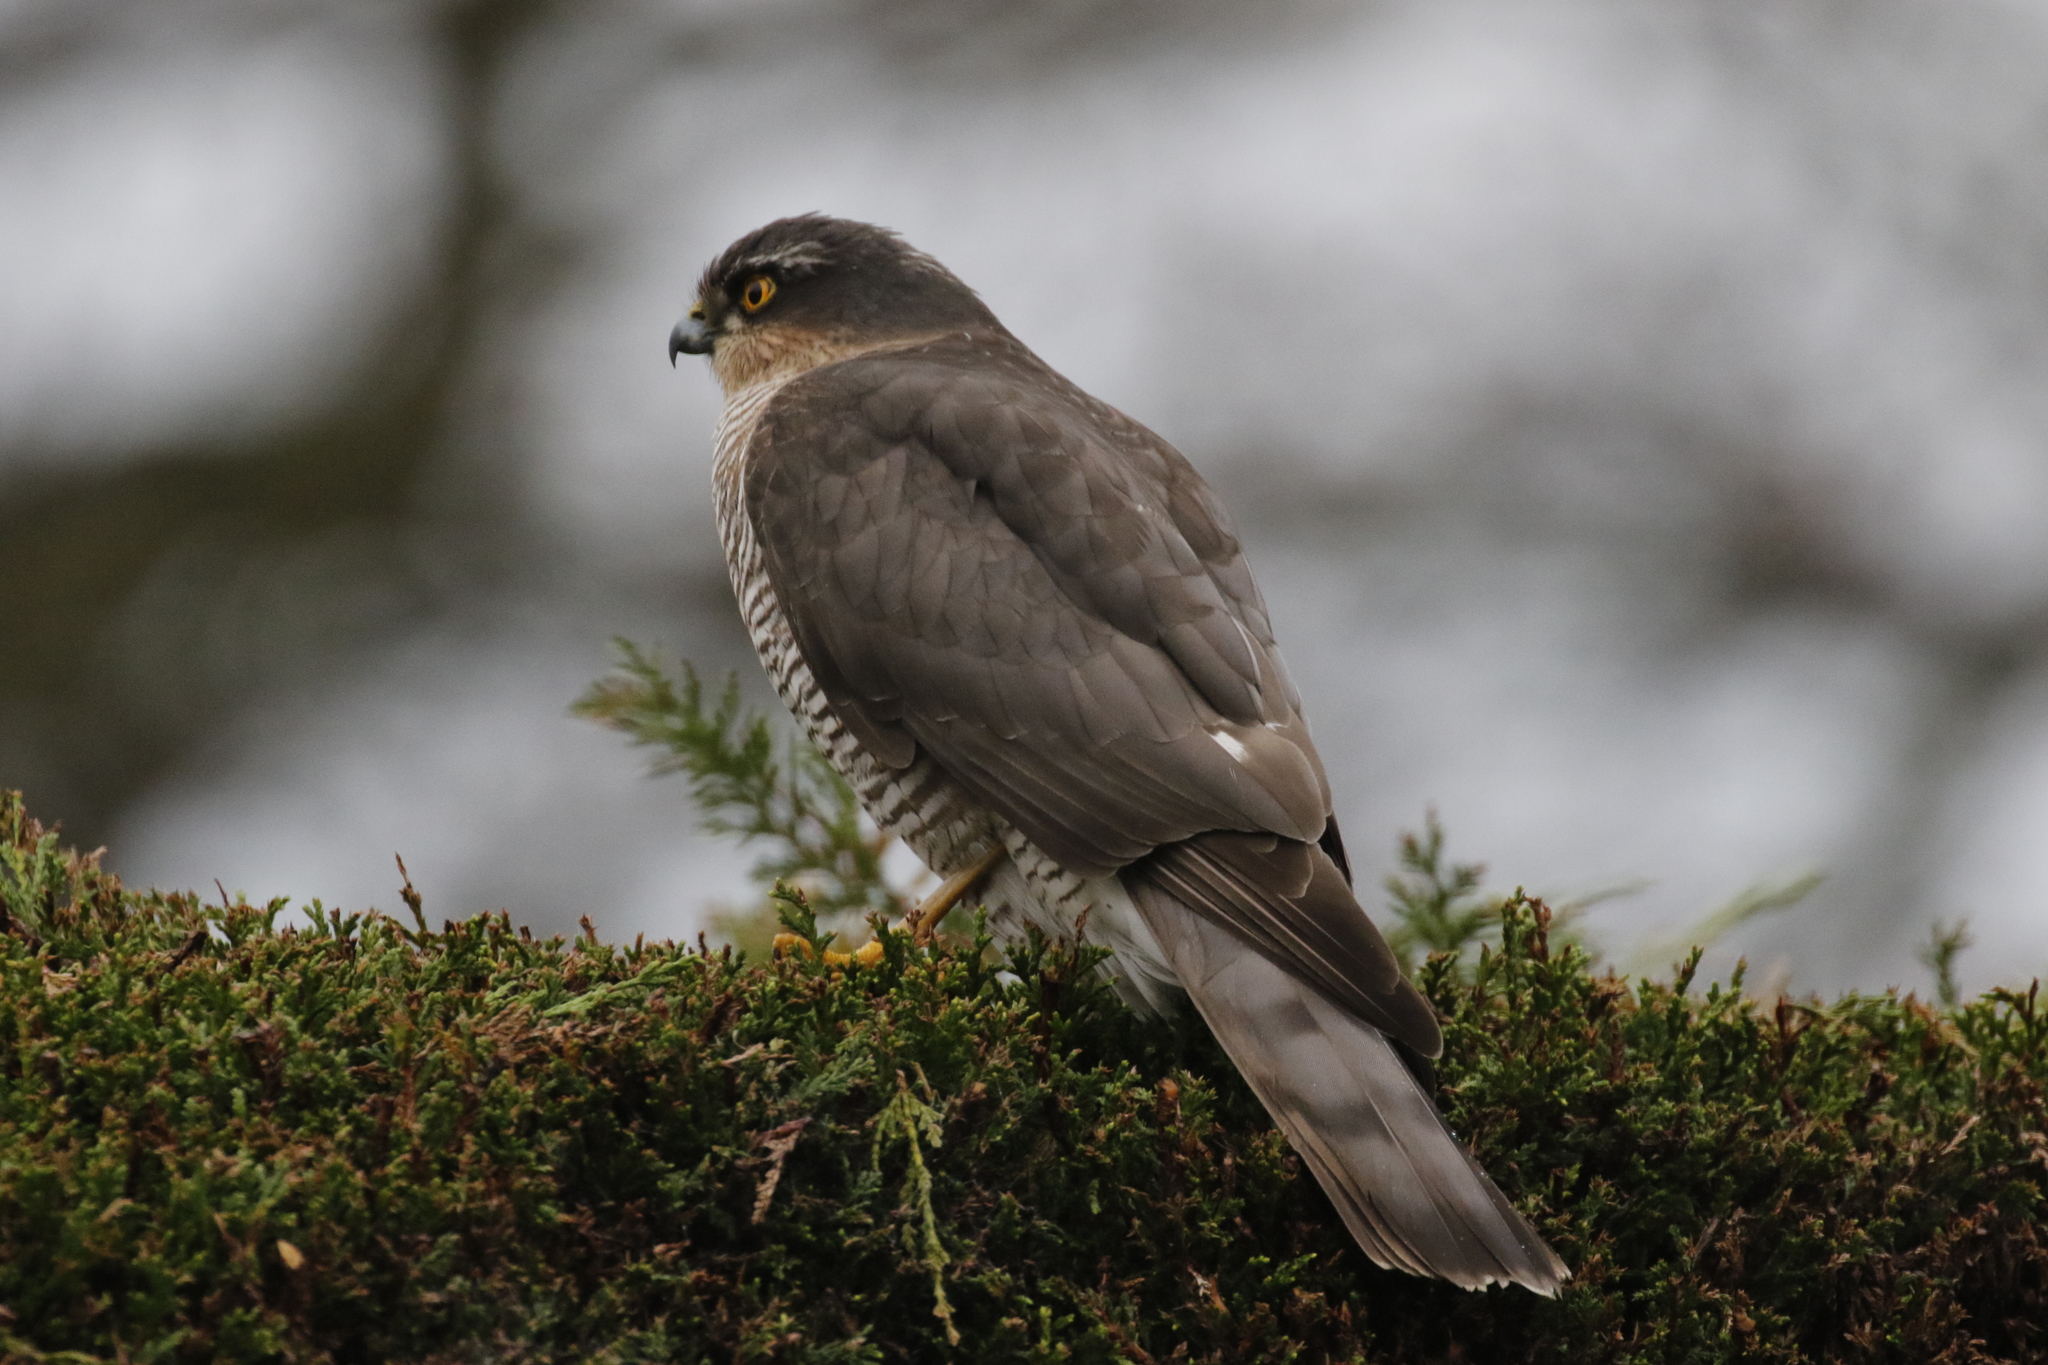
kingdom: Animalia
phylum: Chordata
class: Aves
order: Accipitriformes
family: Accipitridae
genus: Accipiter
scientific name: Accipiter nisus
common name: Eurasian sparrowhawk
